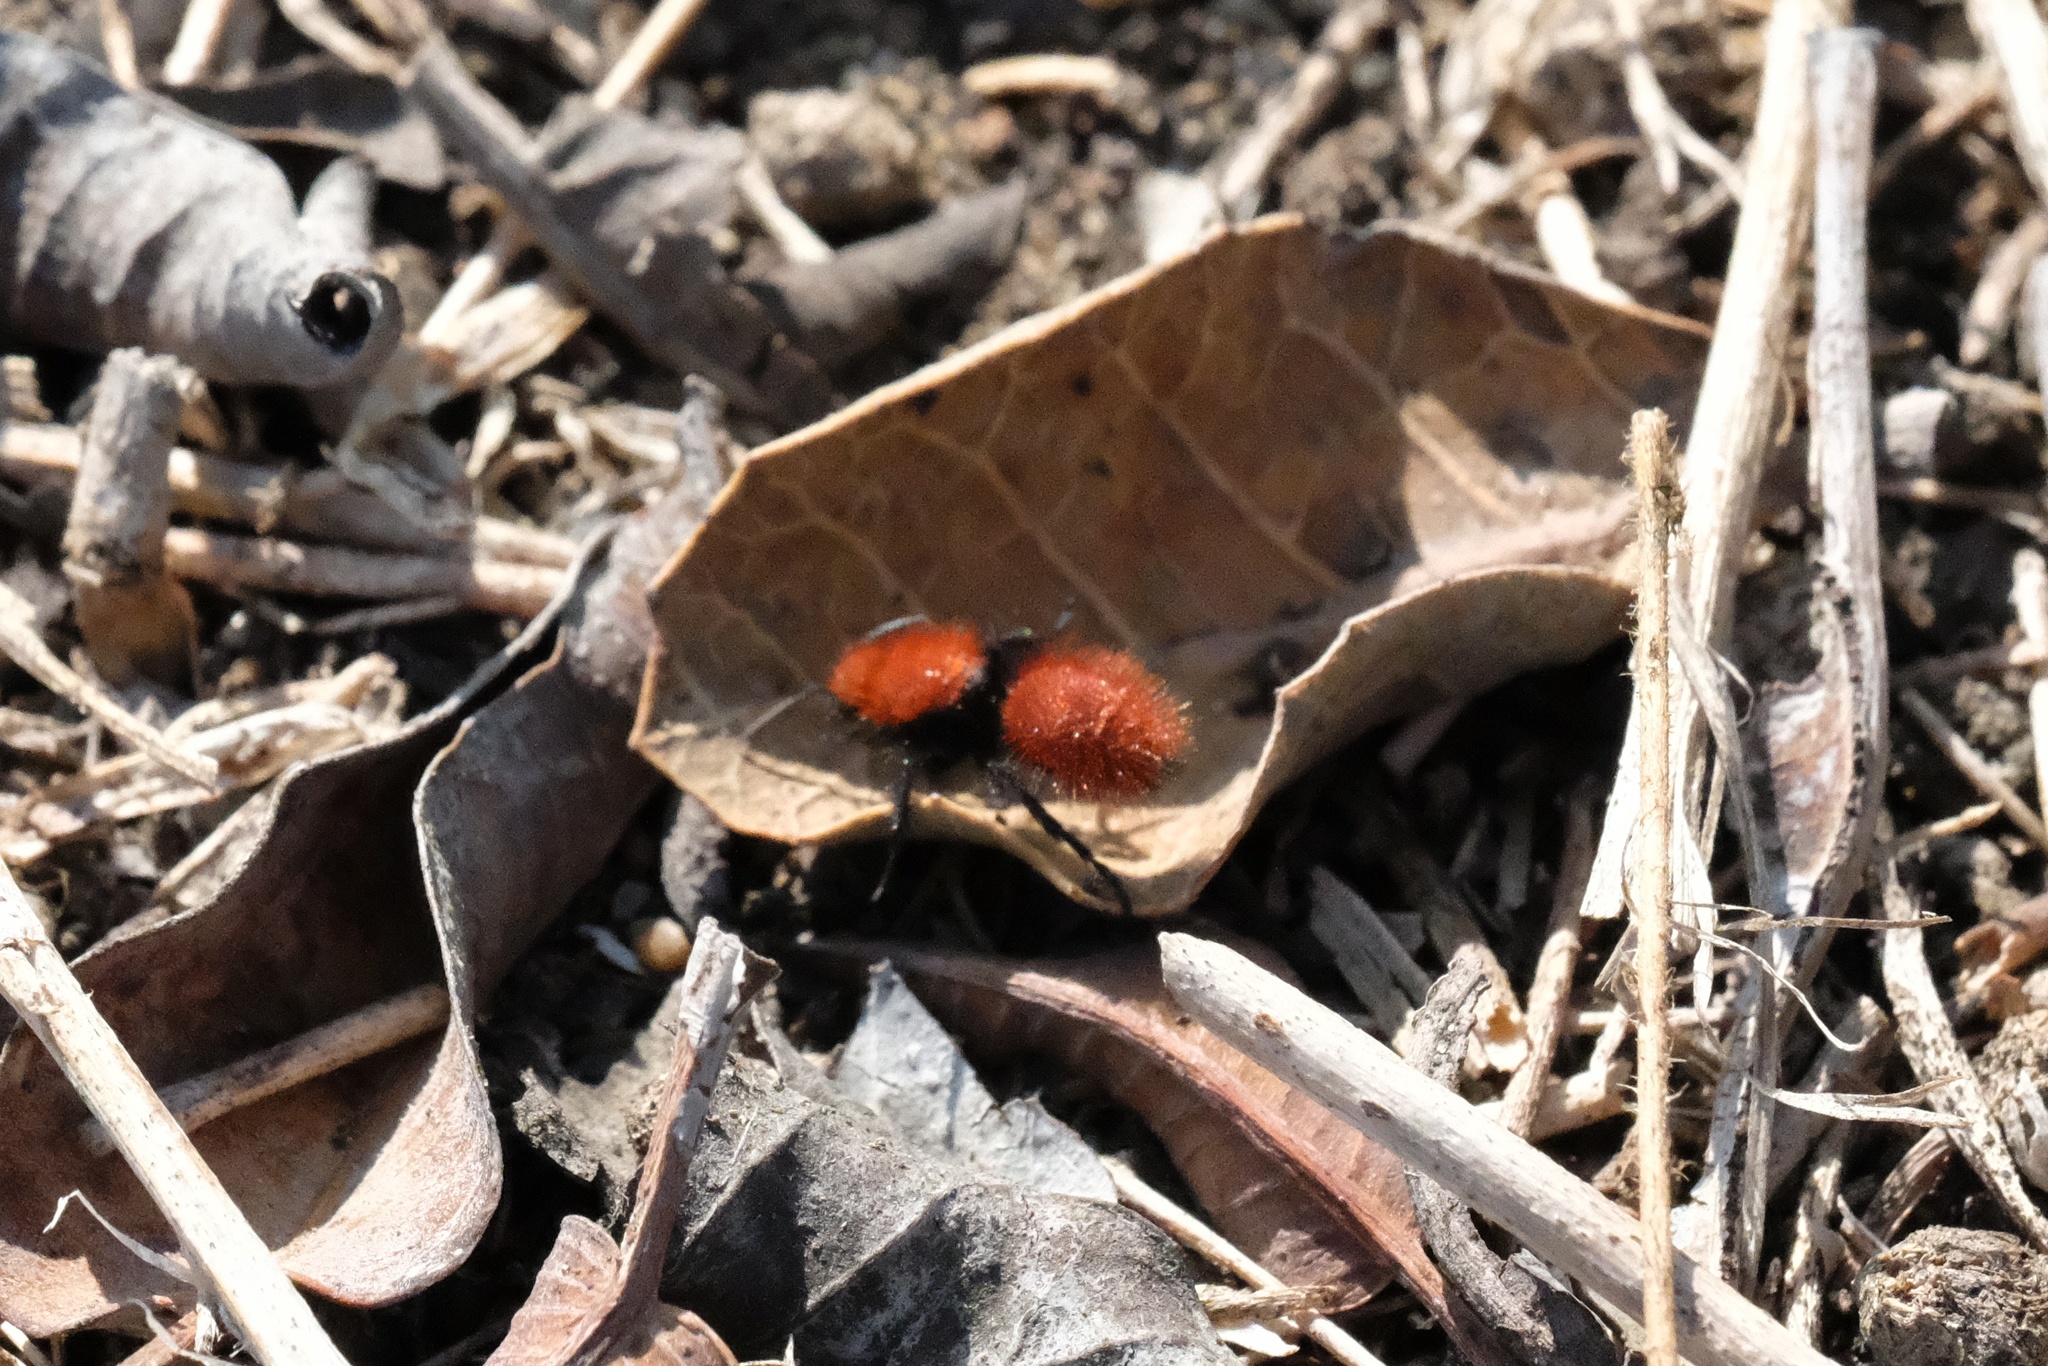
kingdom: Animalia
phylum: Arthropoda
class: Insecta
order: Hymenoptera
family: Mutillidae
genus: Dasymutilla
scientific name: Dasymutilla
